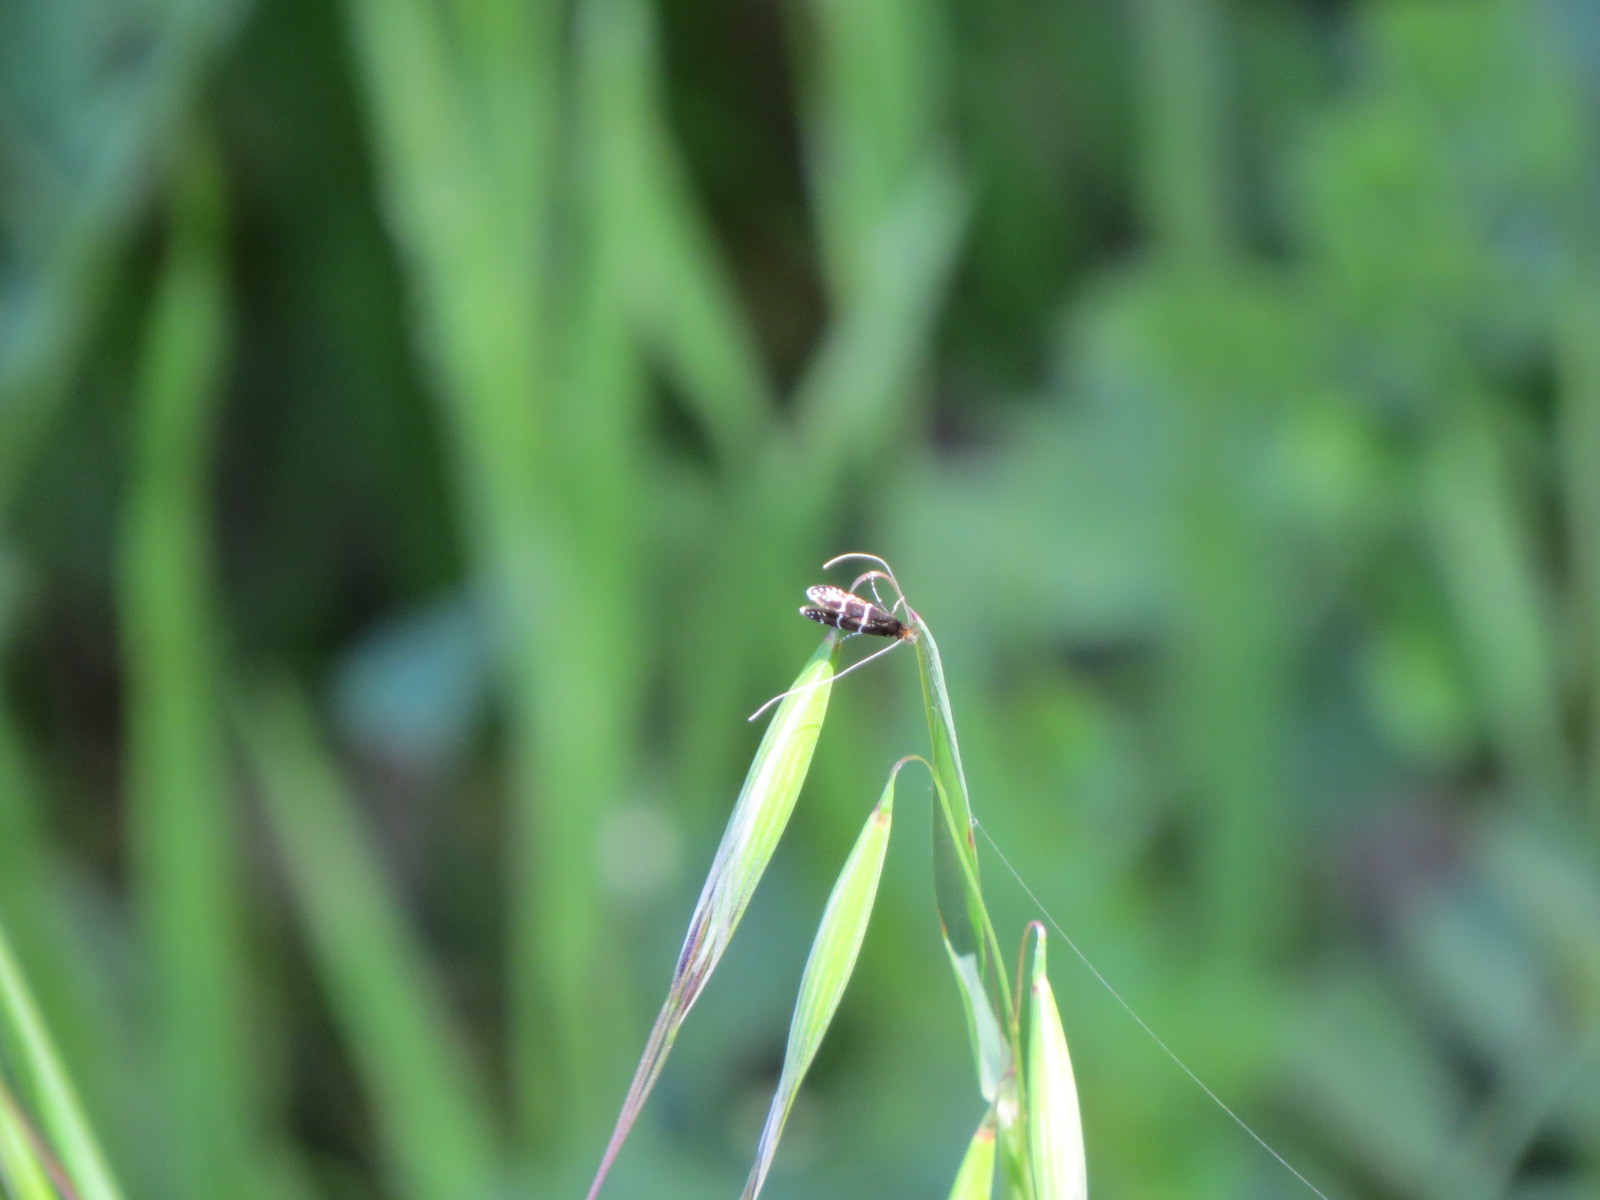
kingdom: Animalia
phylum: Arthropoda
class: Insecta
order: Lepidoptera
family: Adelidae
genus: Adela
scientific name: Adela septentrionella
